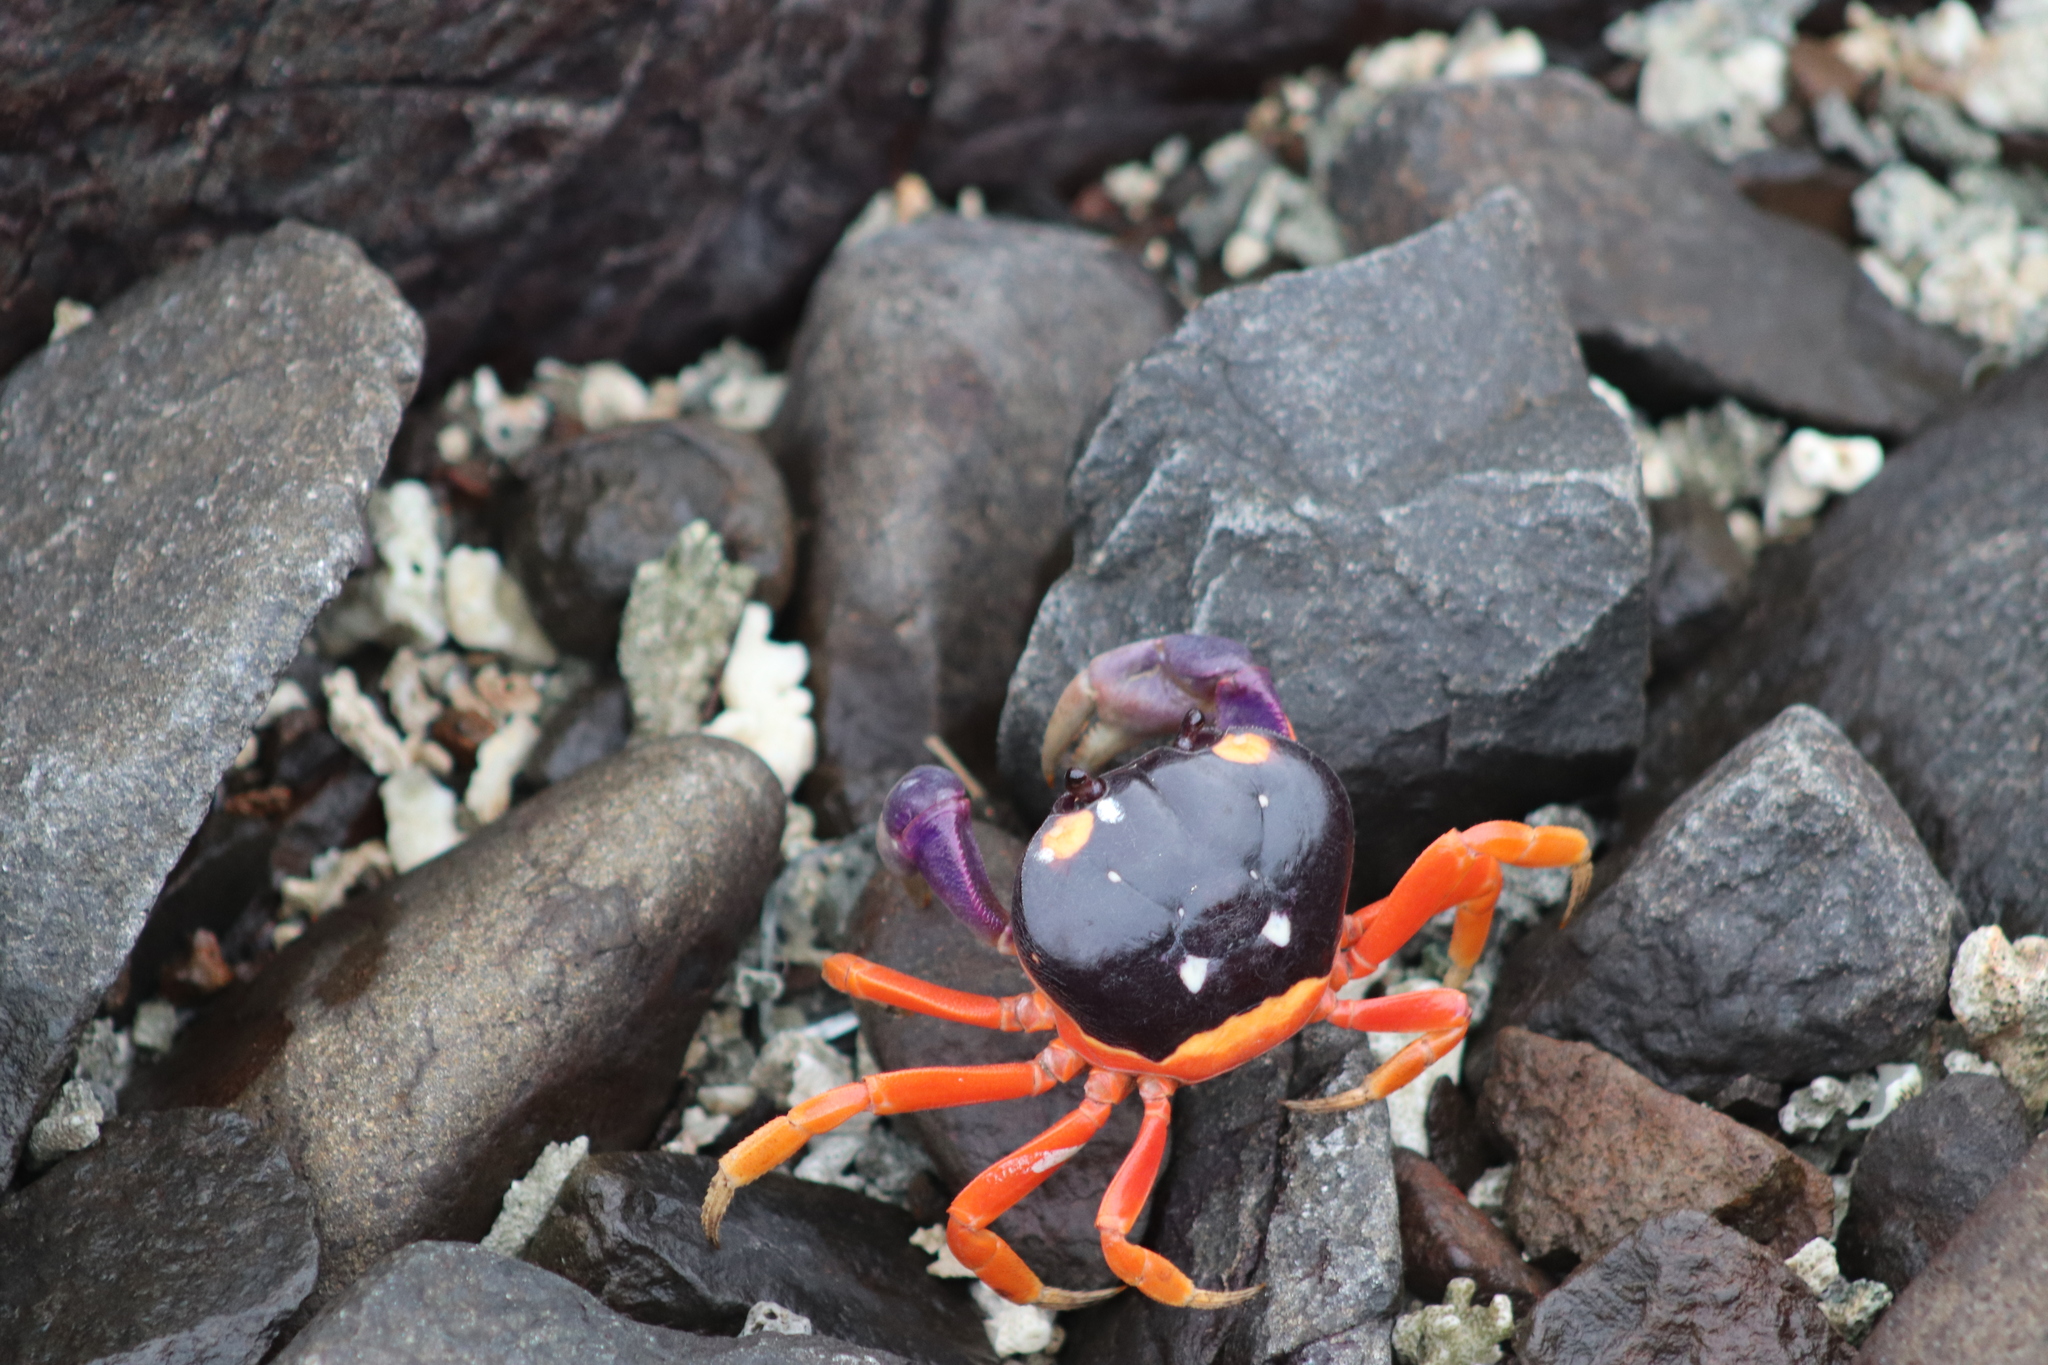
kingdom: Animalia
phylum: Arthropoda
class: Malacostraca
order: Decapoda
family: Gecarcinidae
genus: Gecarcinus
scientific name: Gecarcinus quadratus
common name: Halloween crab
